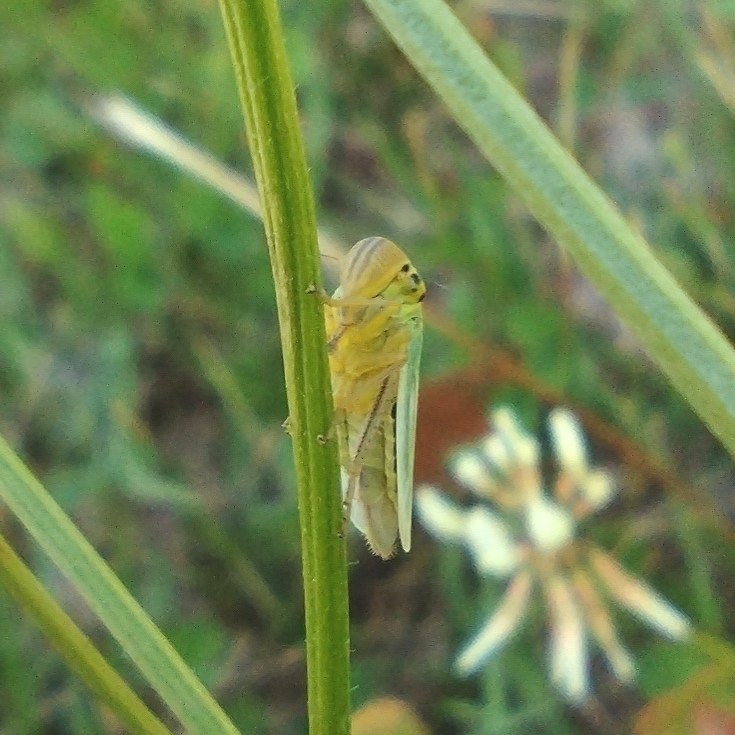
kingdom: Animalia
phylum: Arthropoda
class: Insecta
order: Hemiptera
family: Cicadellidae
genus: Cicadella
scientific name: Cicadella viridis
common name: Leafhopper
